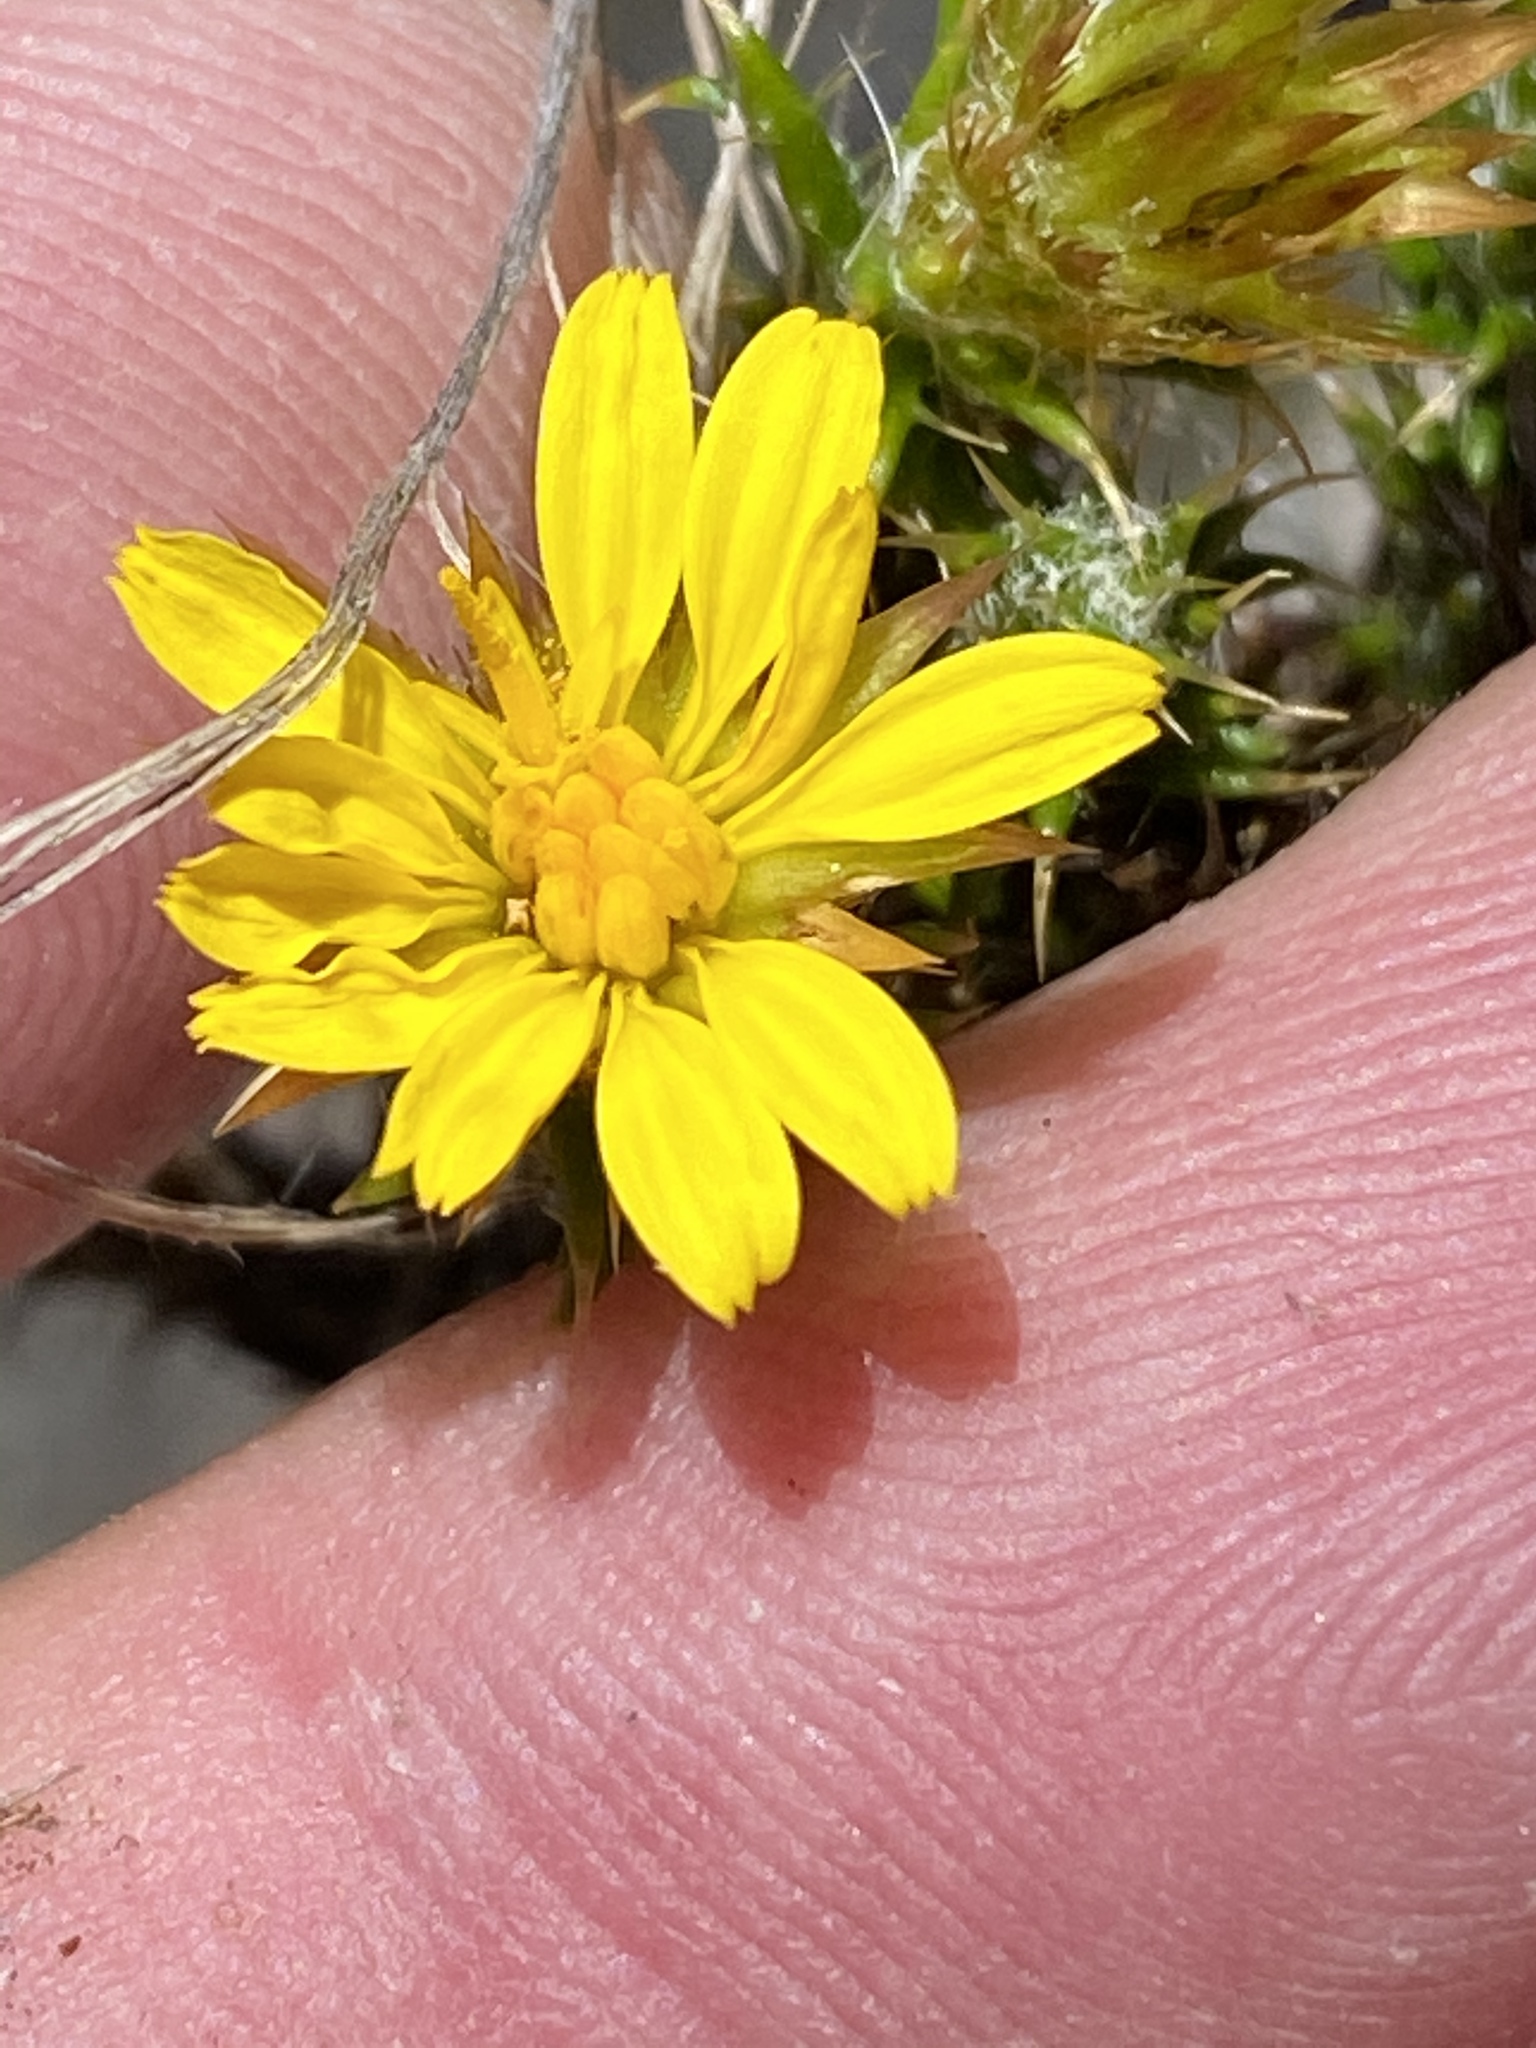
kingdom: Plantae
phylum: Tracheophyta
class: Magnoliopsida
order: Asterales
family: Asteraceae
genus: Cullumia
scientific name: Cullumia bisulca
